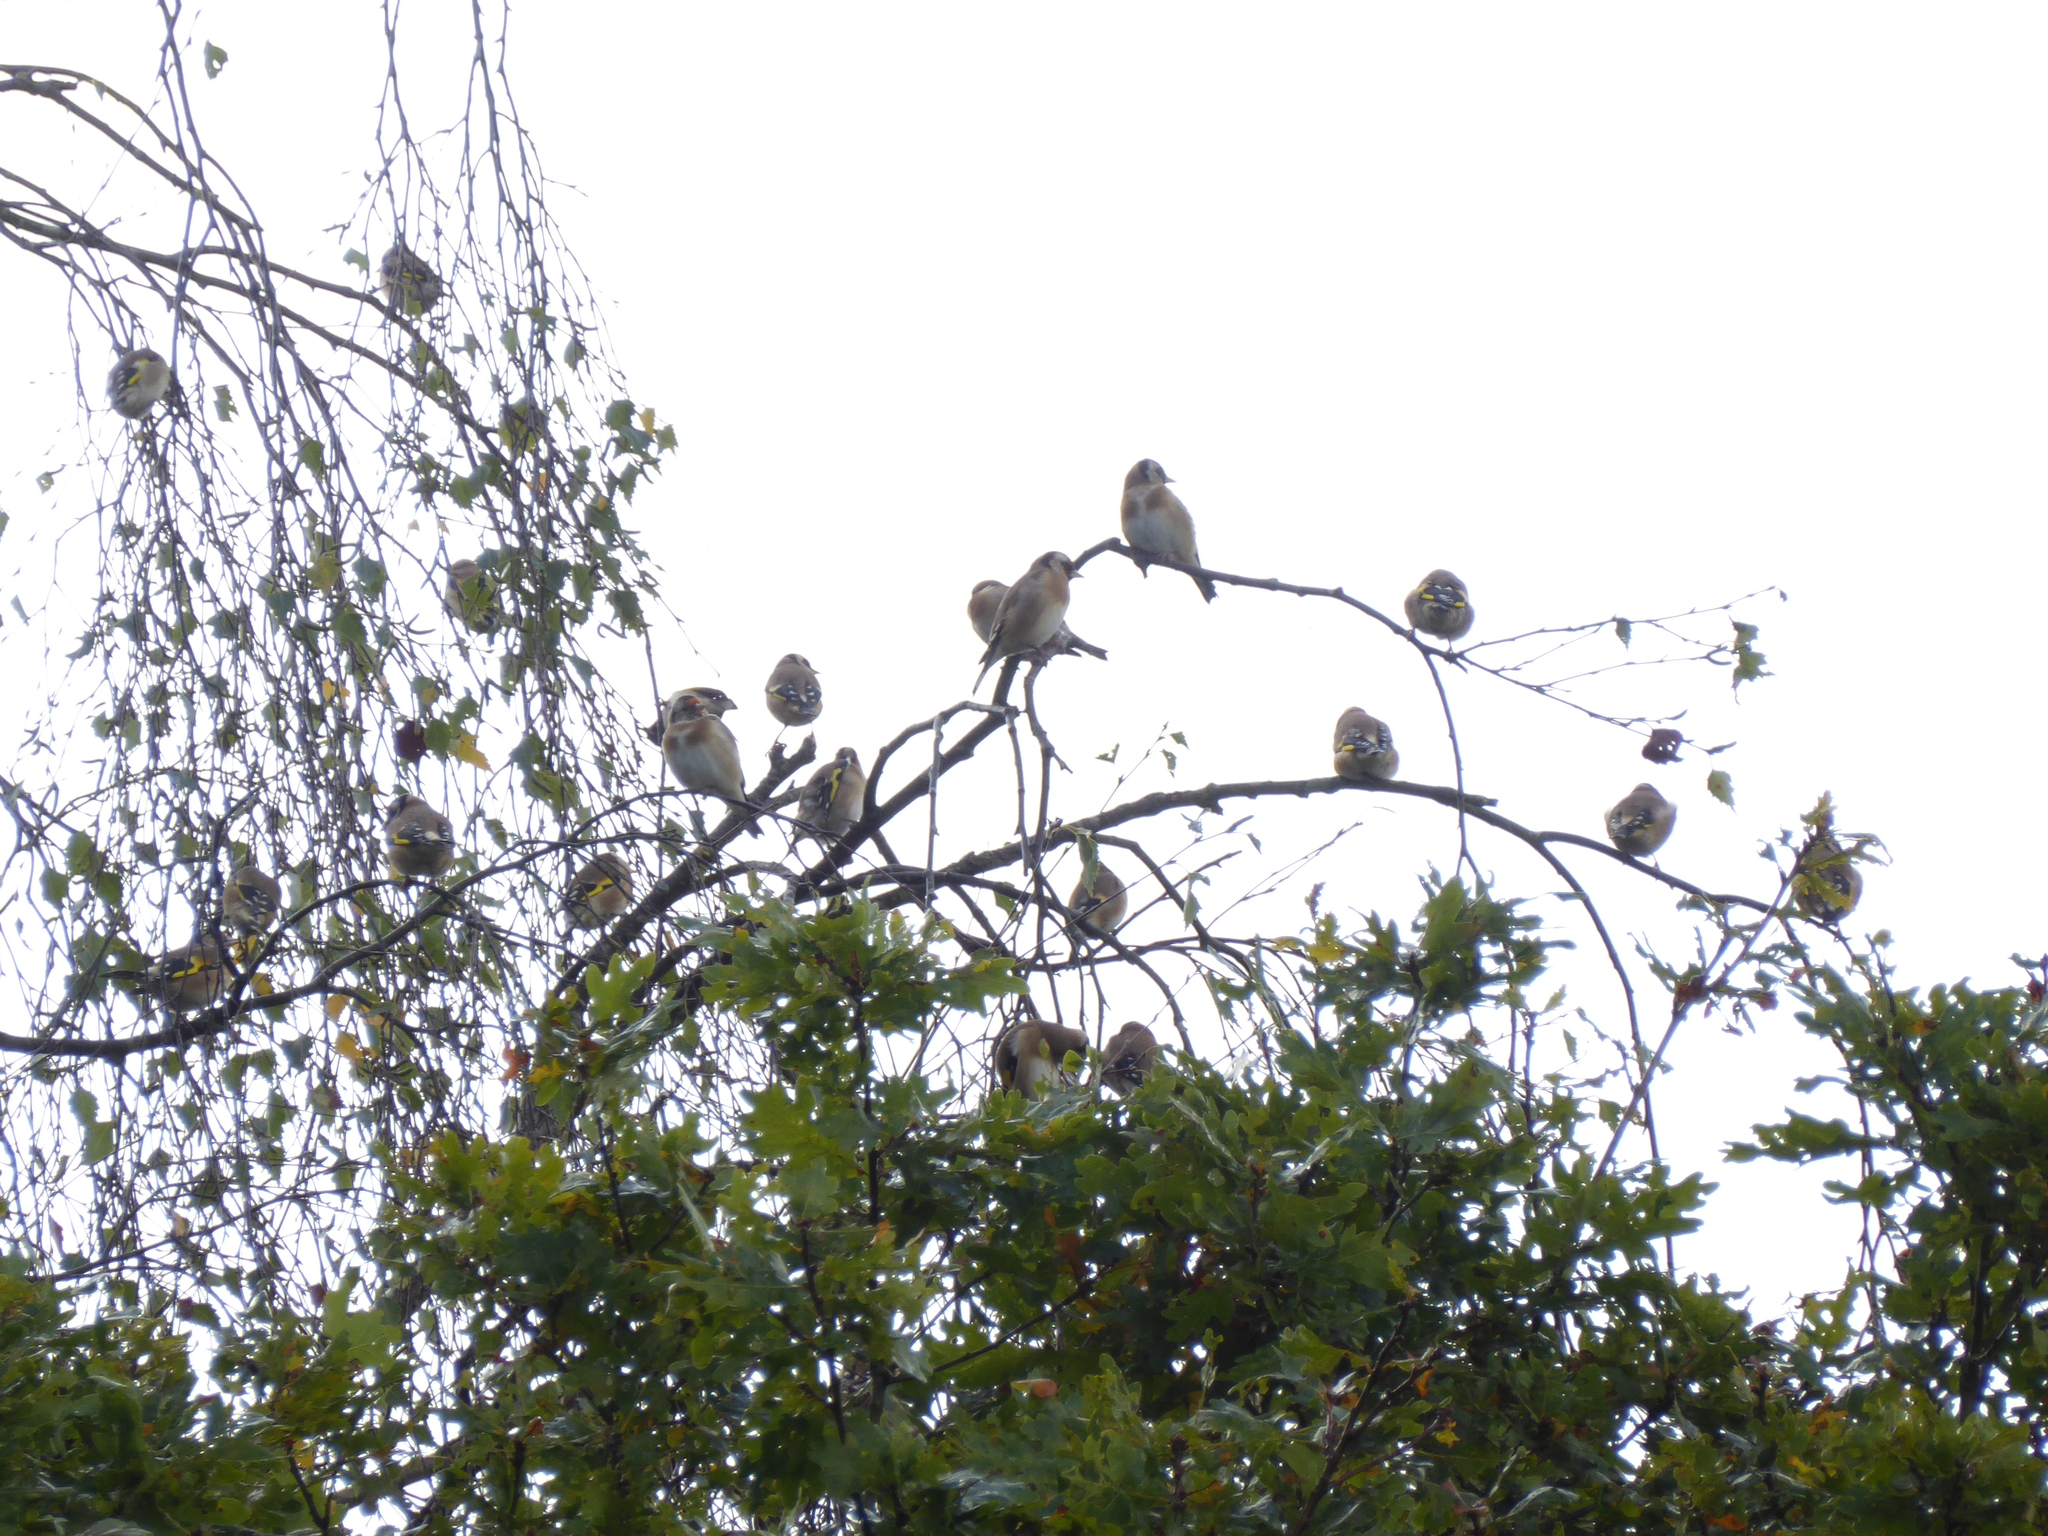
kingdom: Animalia
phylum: Chordata
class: Aves
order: Passeriformes
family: Fringillidae
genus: Carduelis
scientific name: Carduelis carduelis
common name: European goldfinch
